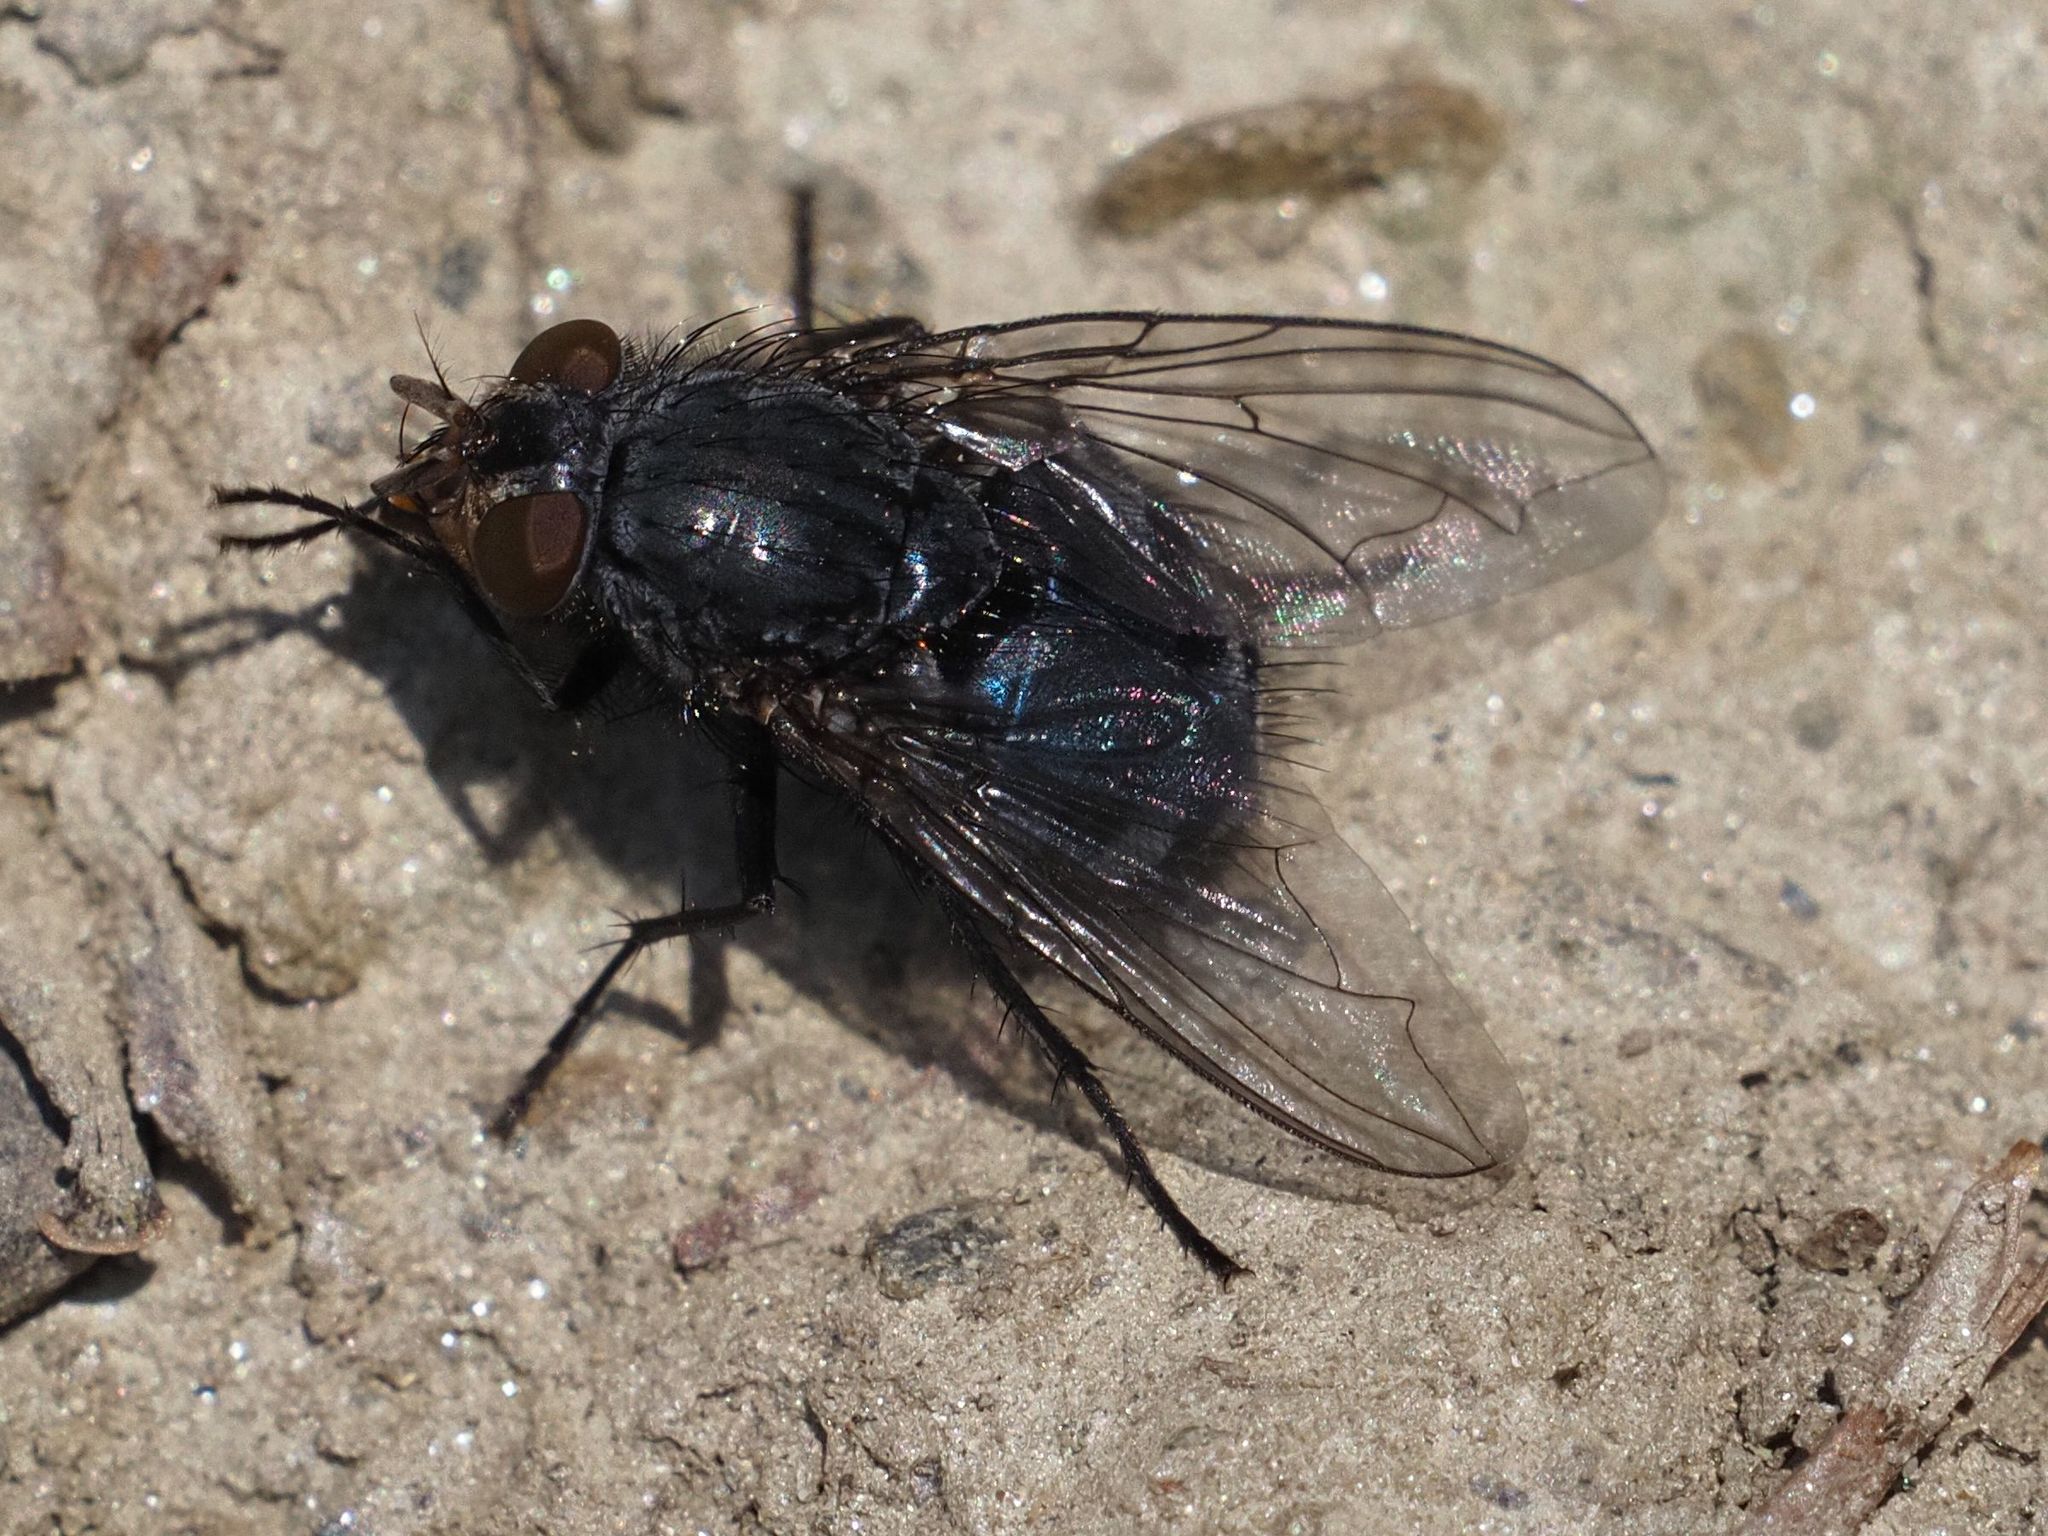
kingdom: Animalia
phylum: Arthropoda
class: Insecta
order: Diptera
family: Calliphoridae
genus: Calliphora
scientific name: Calliphora vicina
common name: Common blow flie
